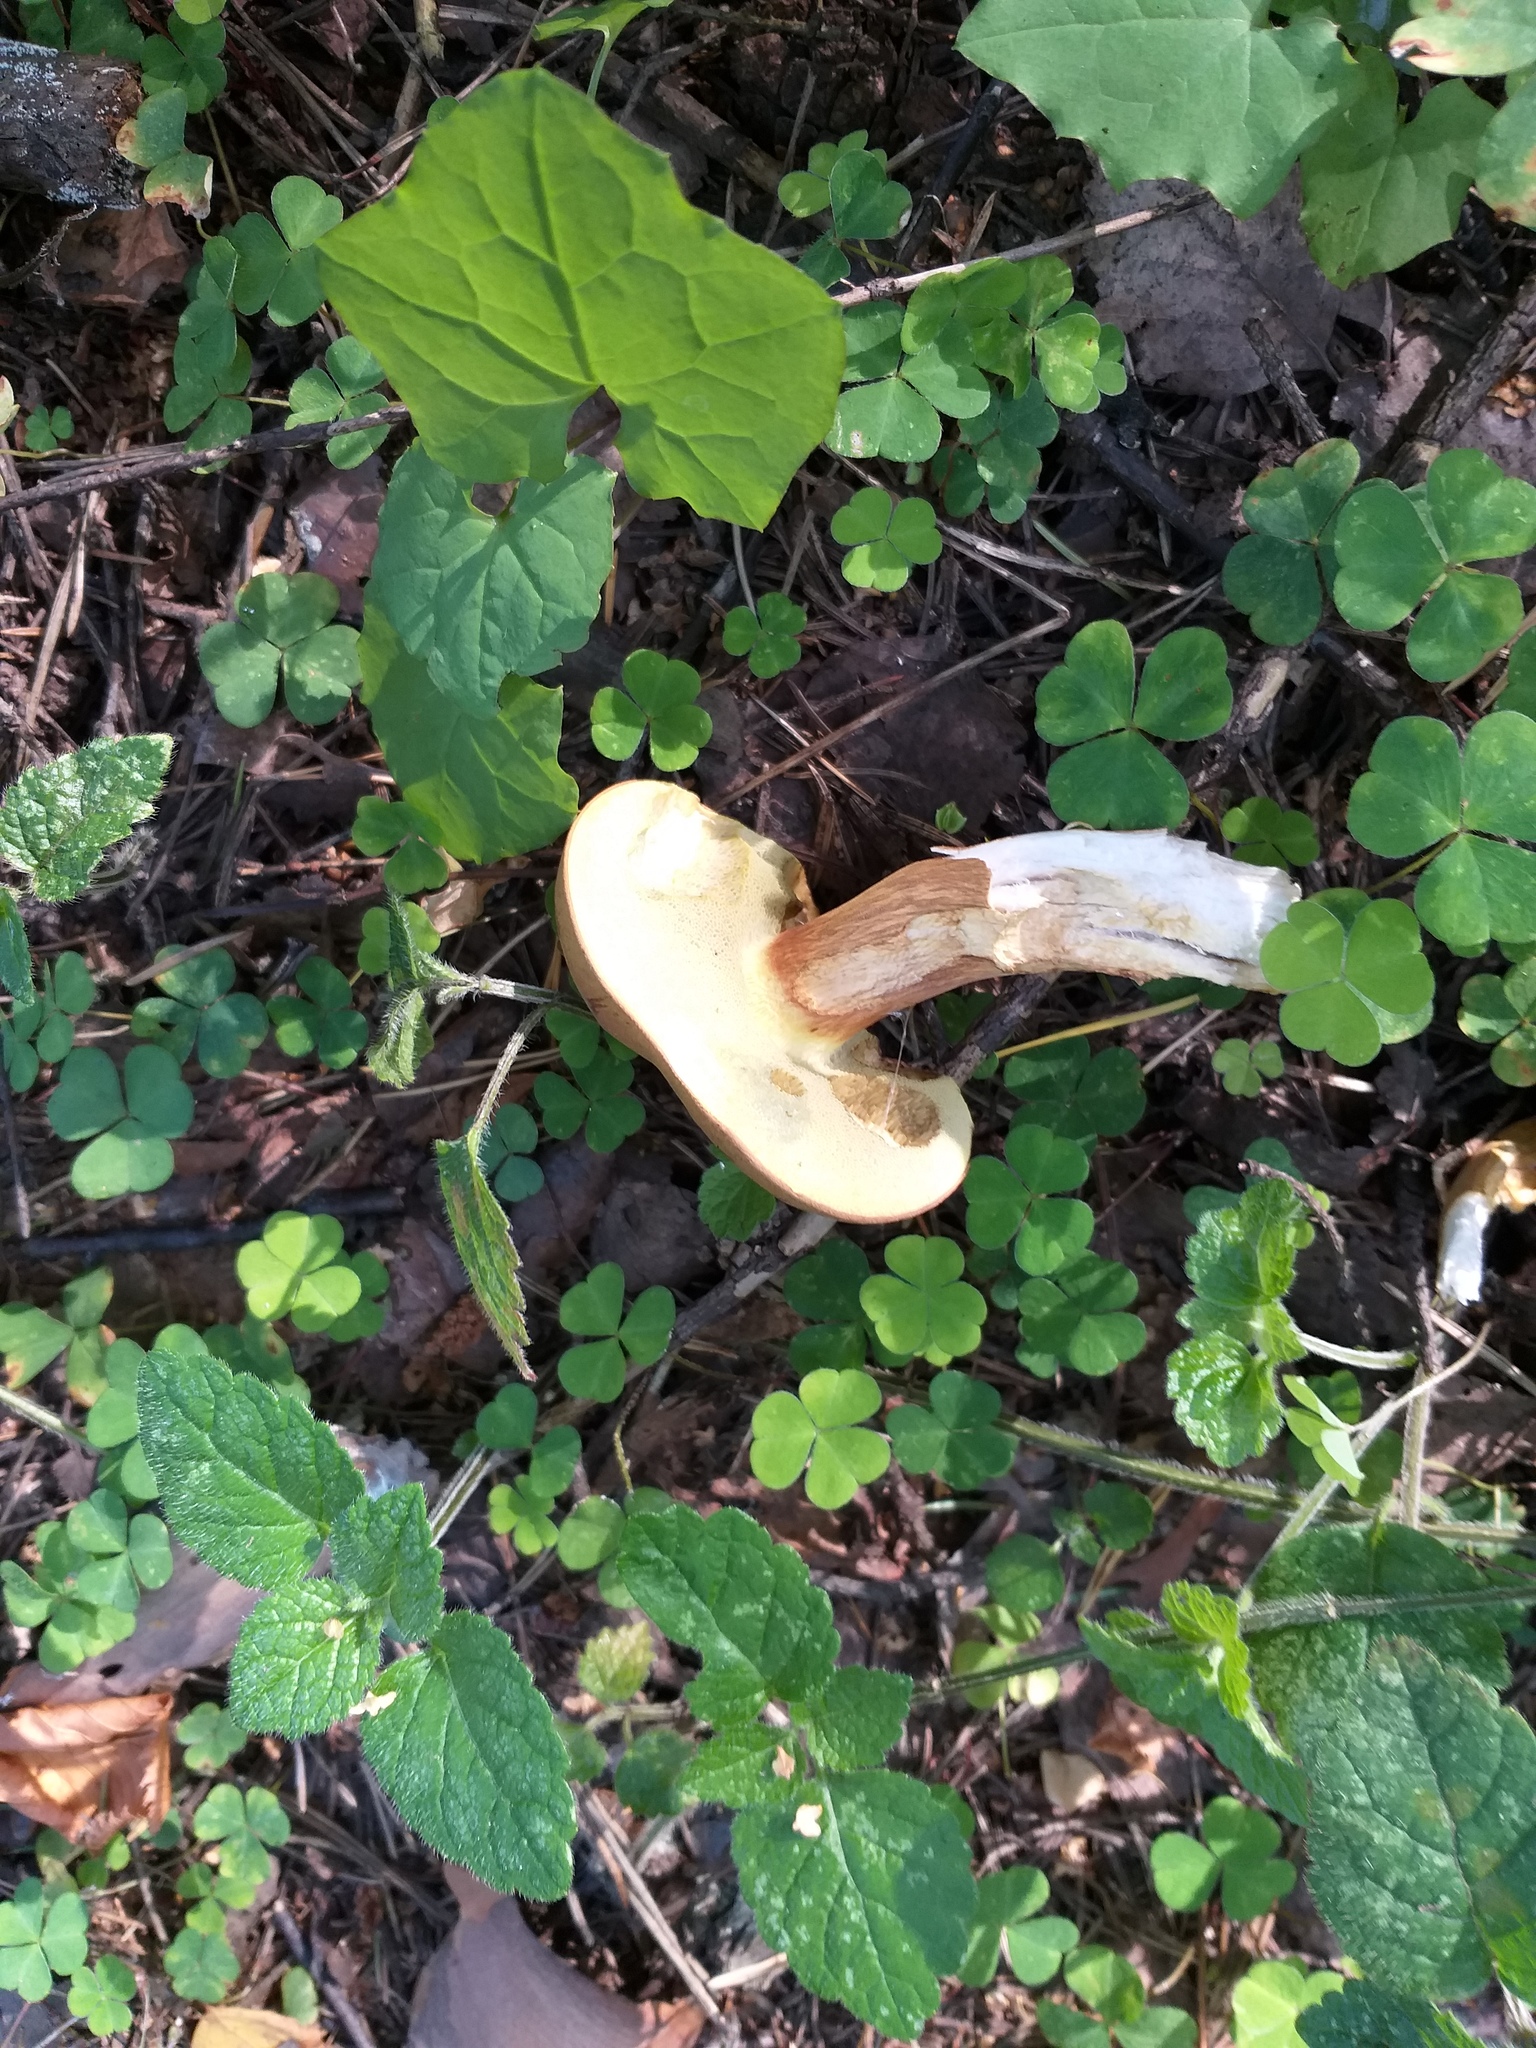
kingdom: Fungi
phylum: Basidiomycota
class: Agaricomycetes
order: Boletales
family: Boletaceae
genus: Imleria
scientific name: Imleria badia
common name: Bay bolete
